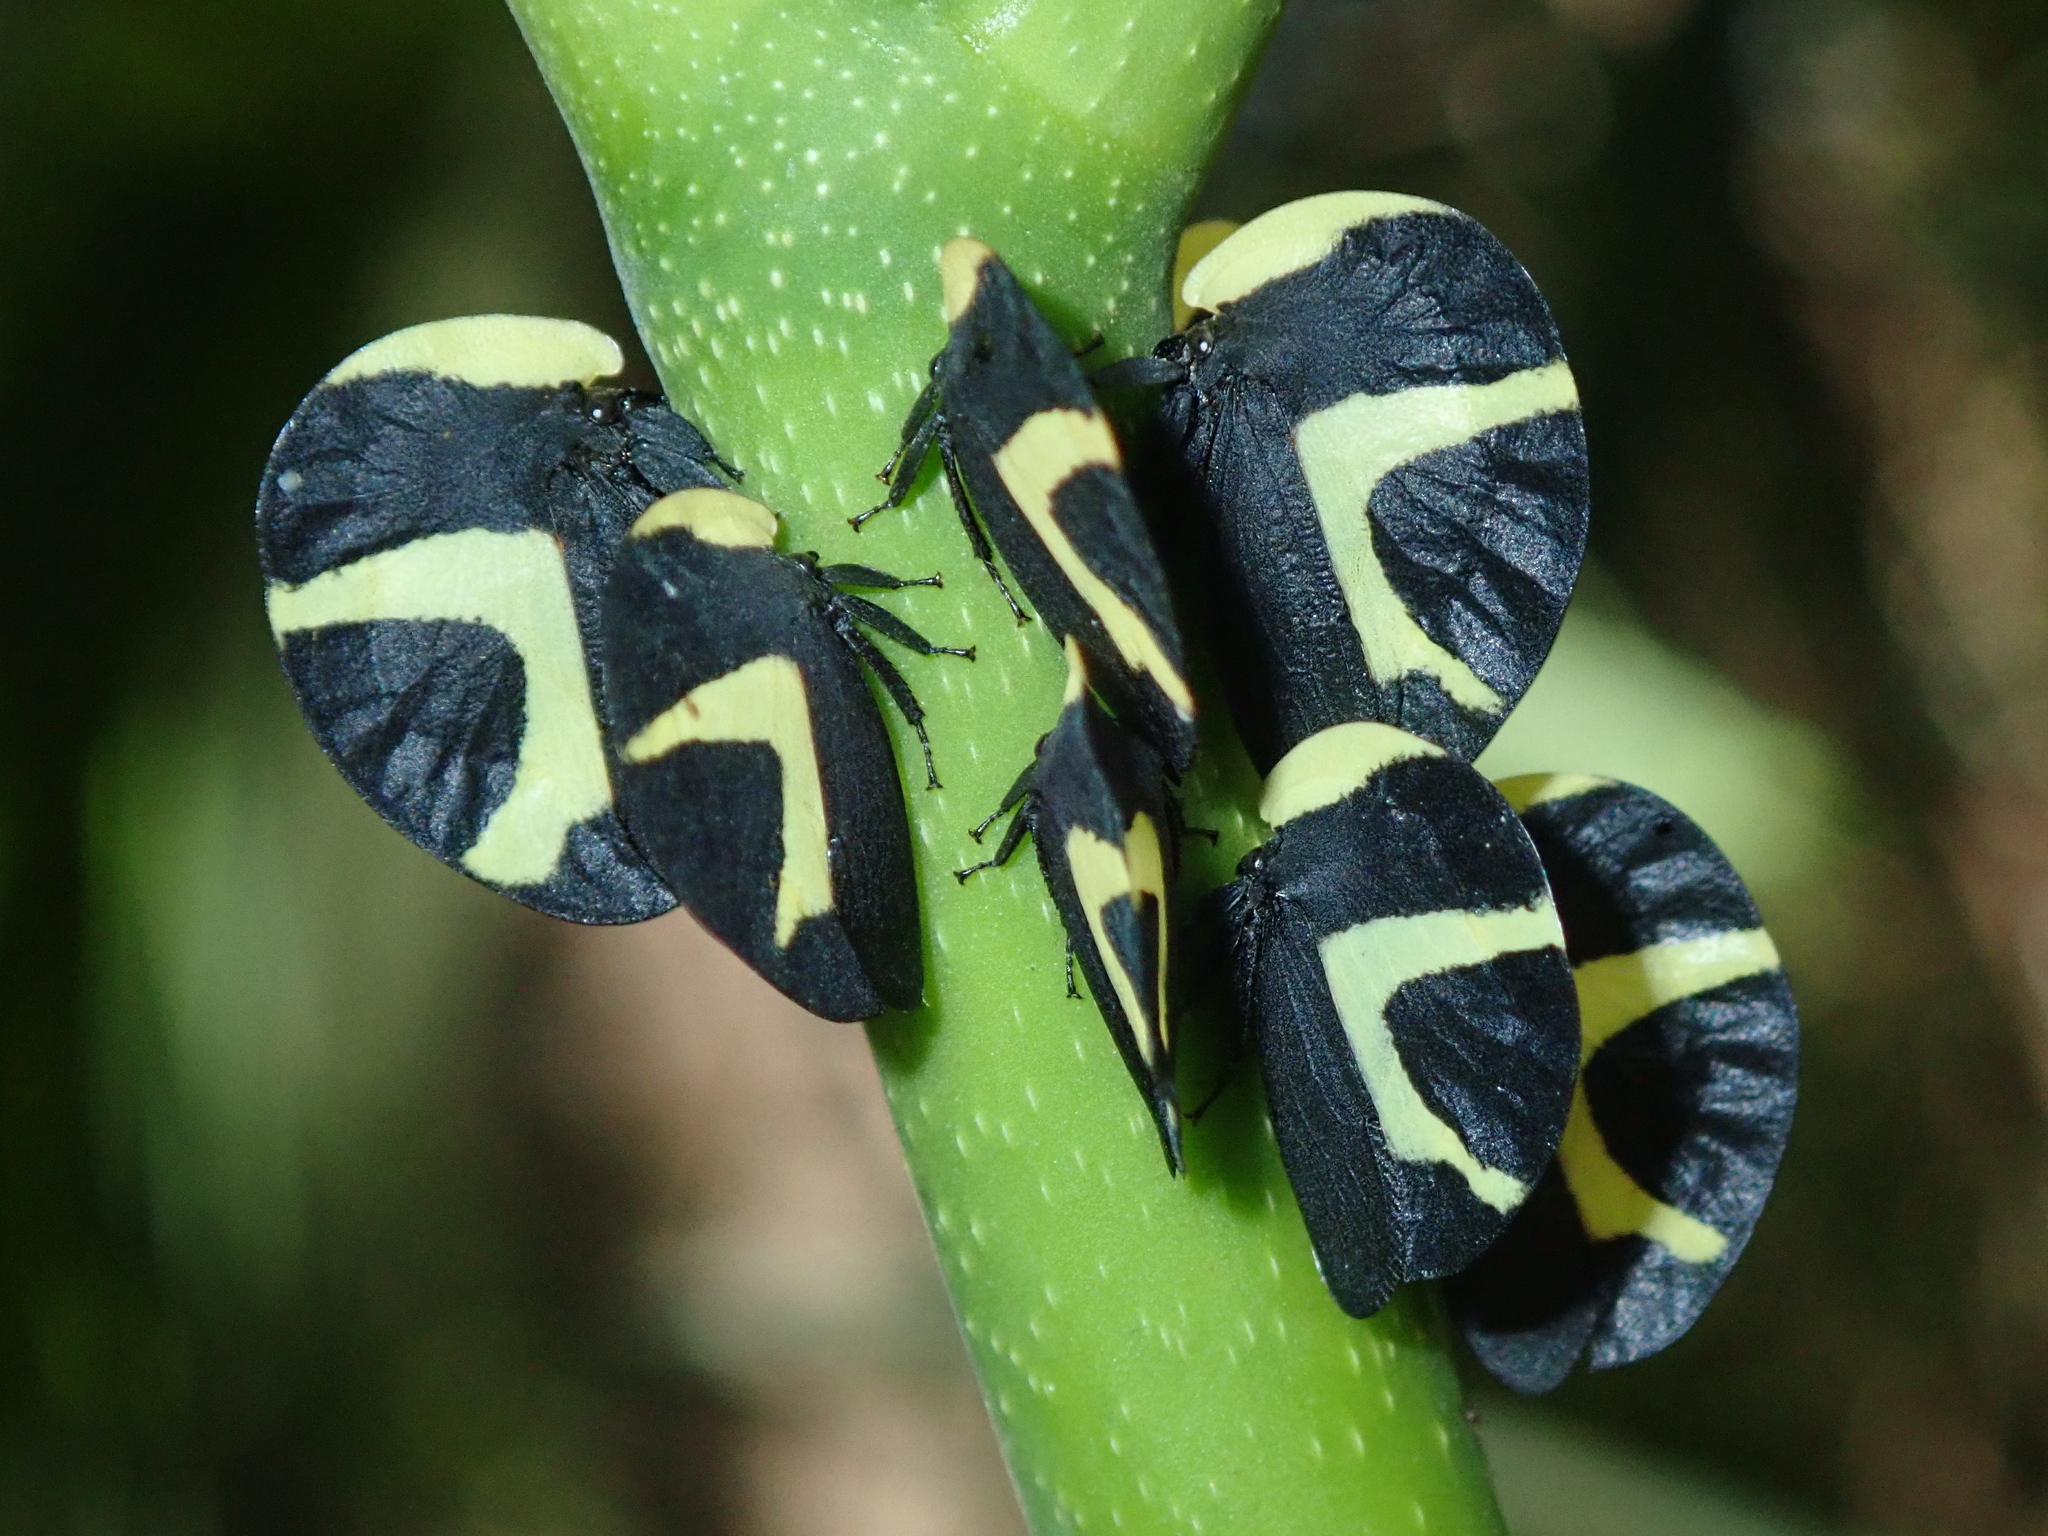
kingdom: Animalia
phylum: Arthropoda
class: Insecta
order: Hemiptera
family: Membracidae
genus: Membracis
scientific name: Membracis celsa
